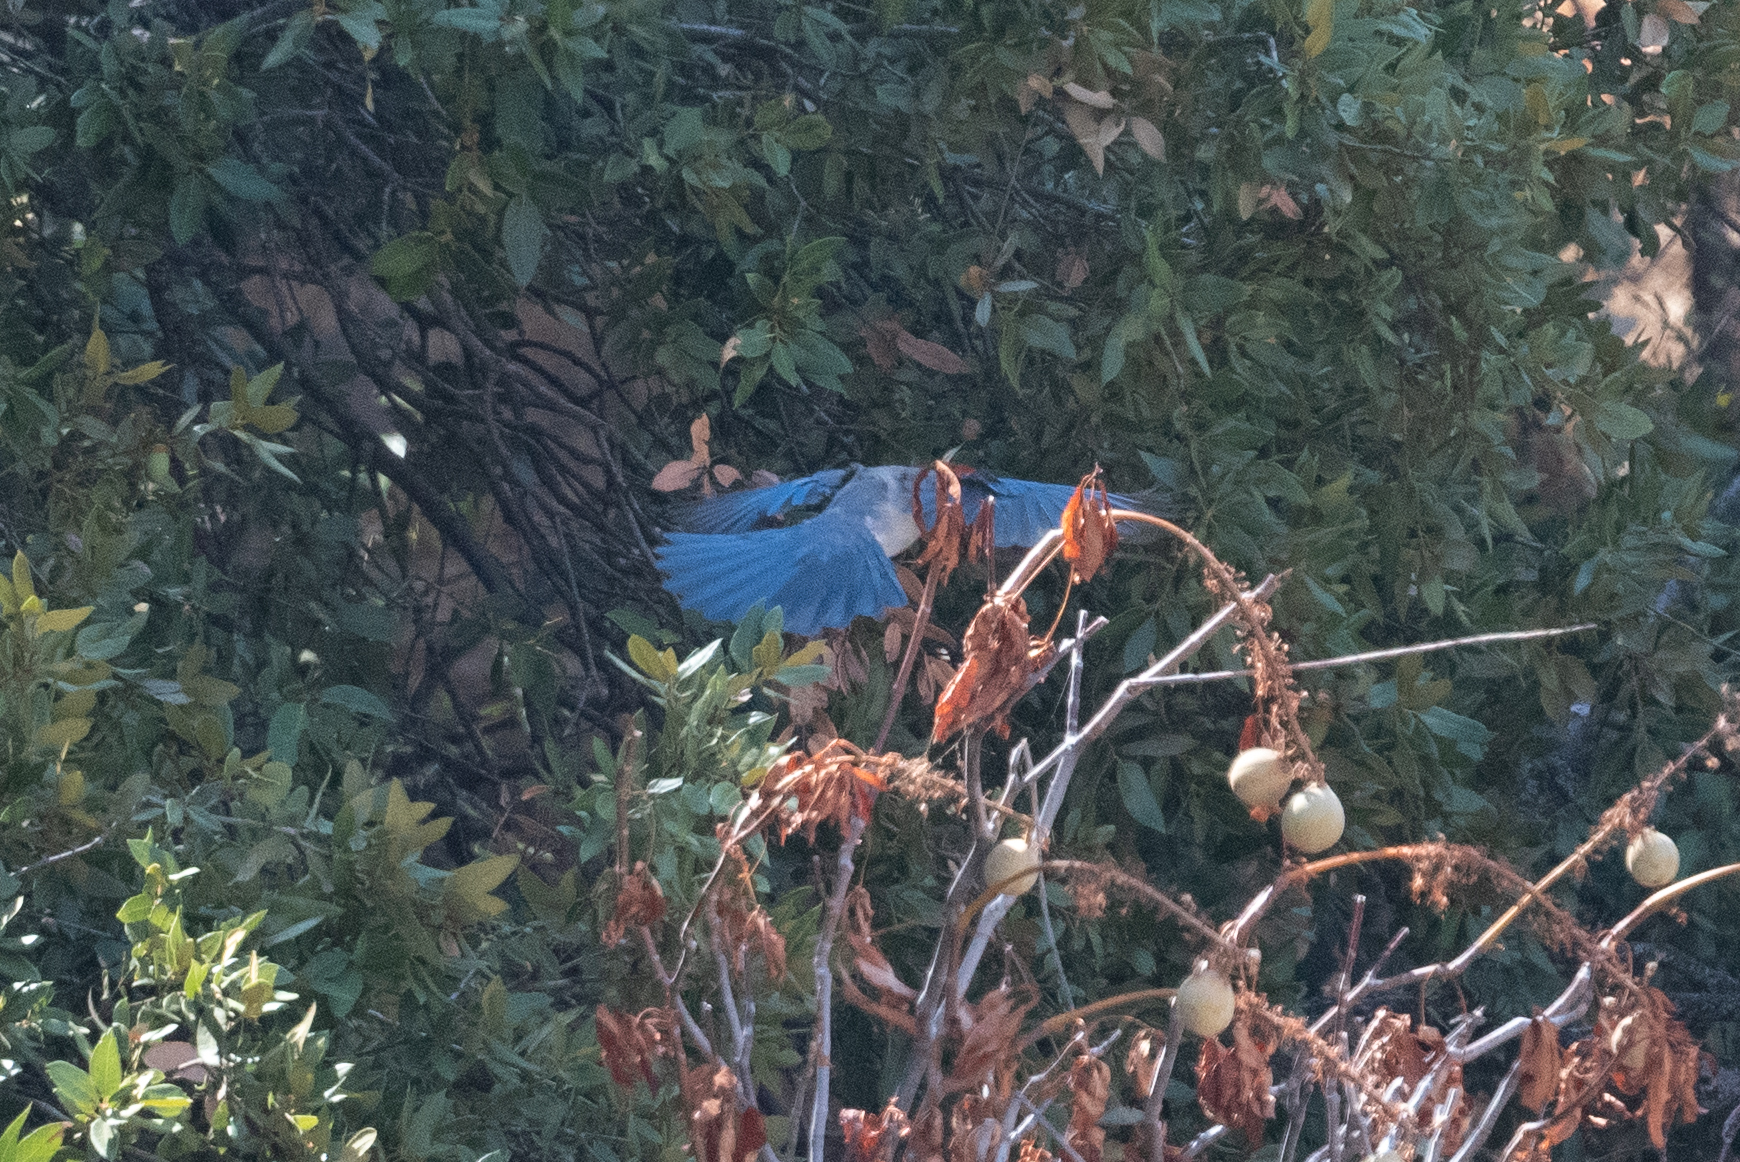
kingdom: Animalia
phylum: Chordata
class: Aves
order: Passeriformes
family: Corvidae
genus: Aphelocoma
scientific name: Aphelocoma californica
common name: California scrub-jay
